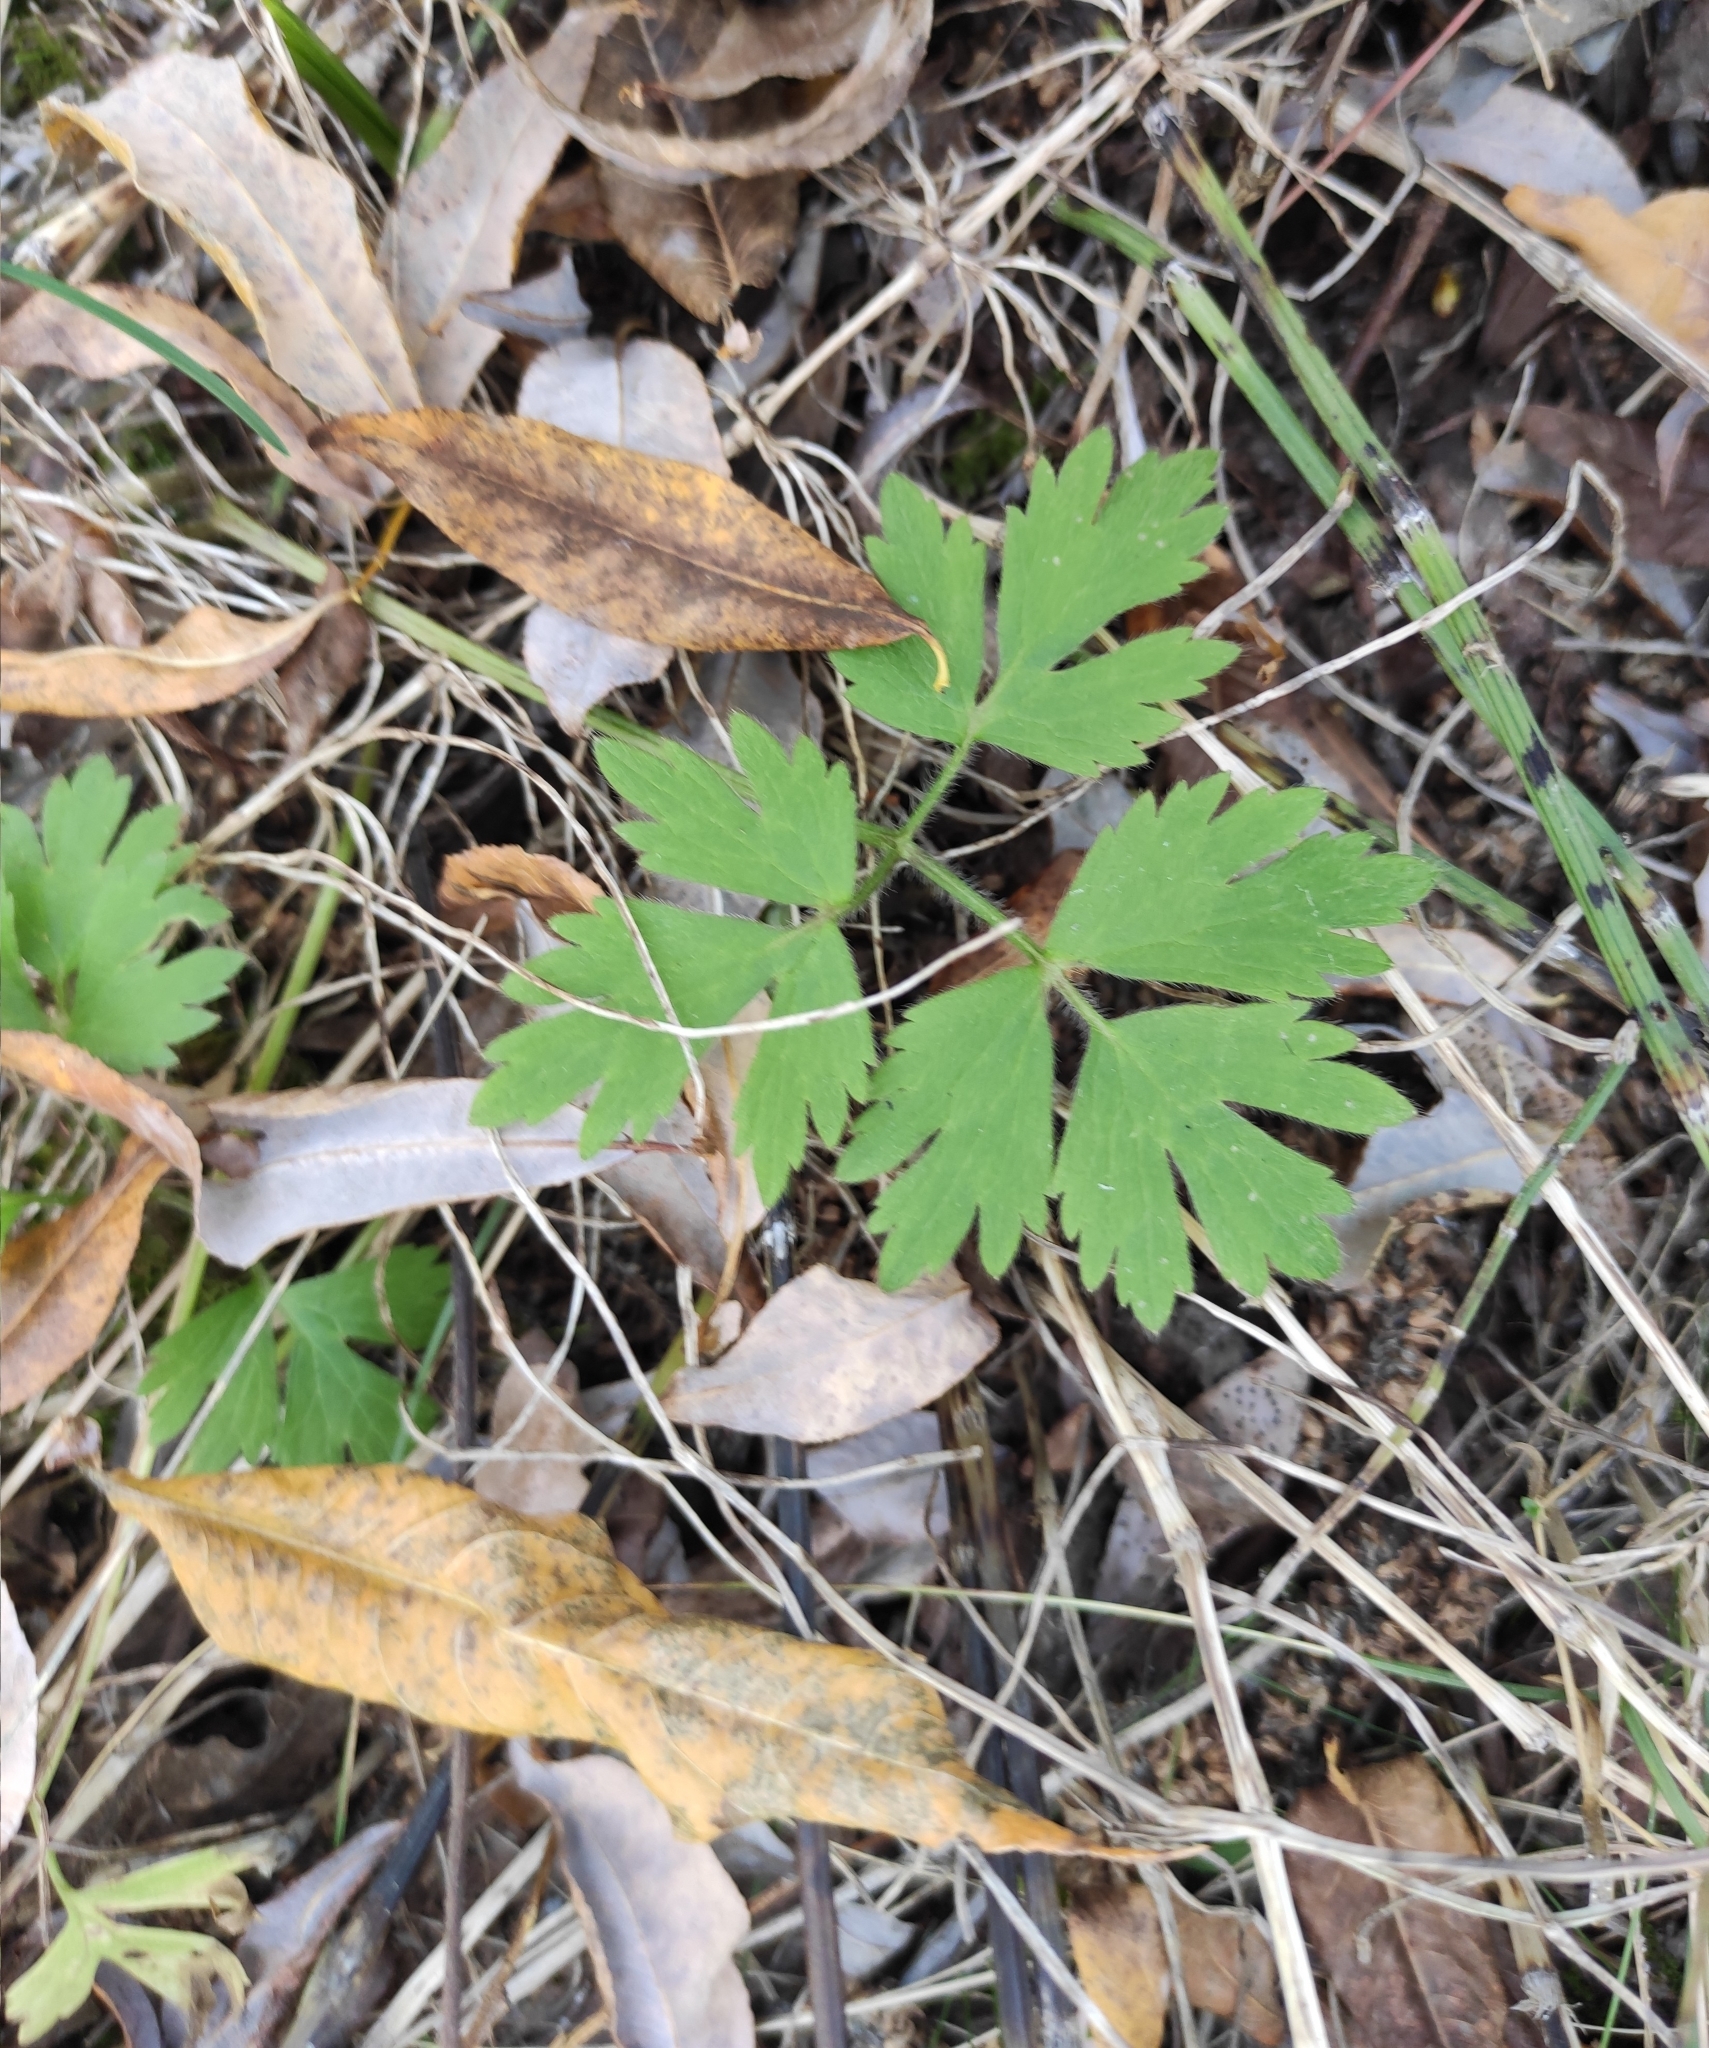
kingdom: Plantae
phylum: Tracheophyta
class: Magnoliopsida
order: Ranunculales
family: Ranunculaceae
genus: Ranunculus
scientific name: Ranunculus repens
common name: Creeping buttercup
